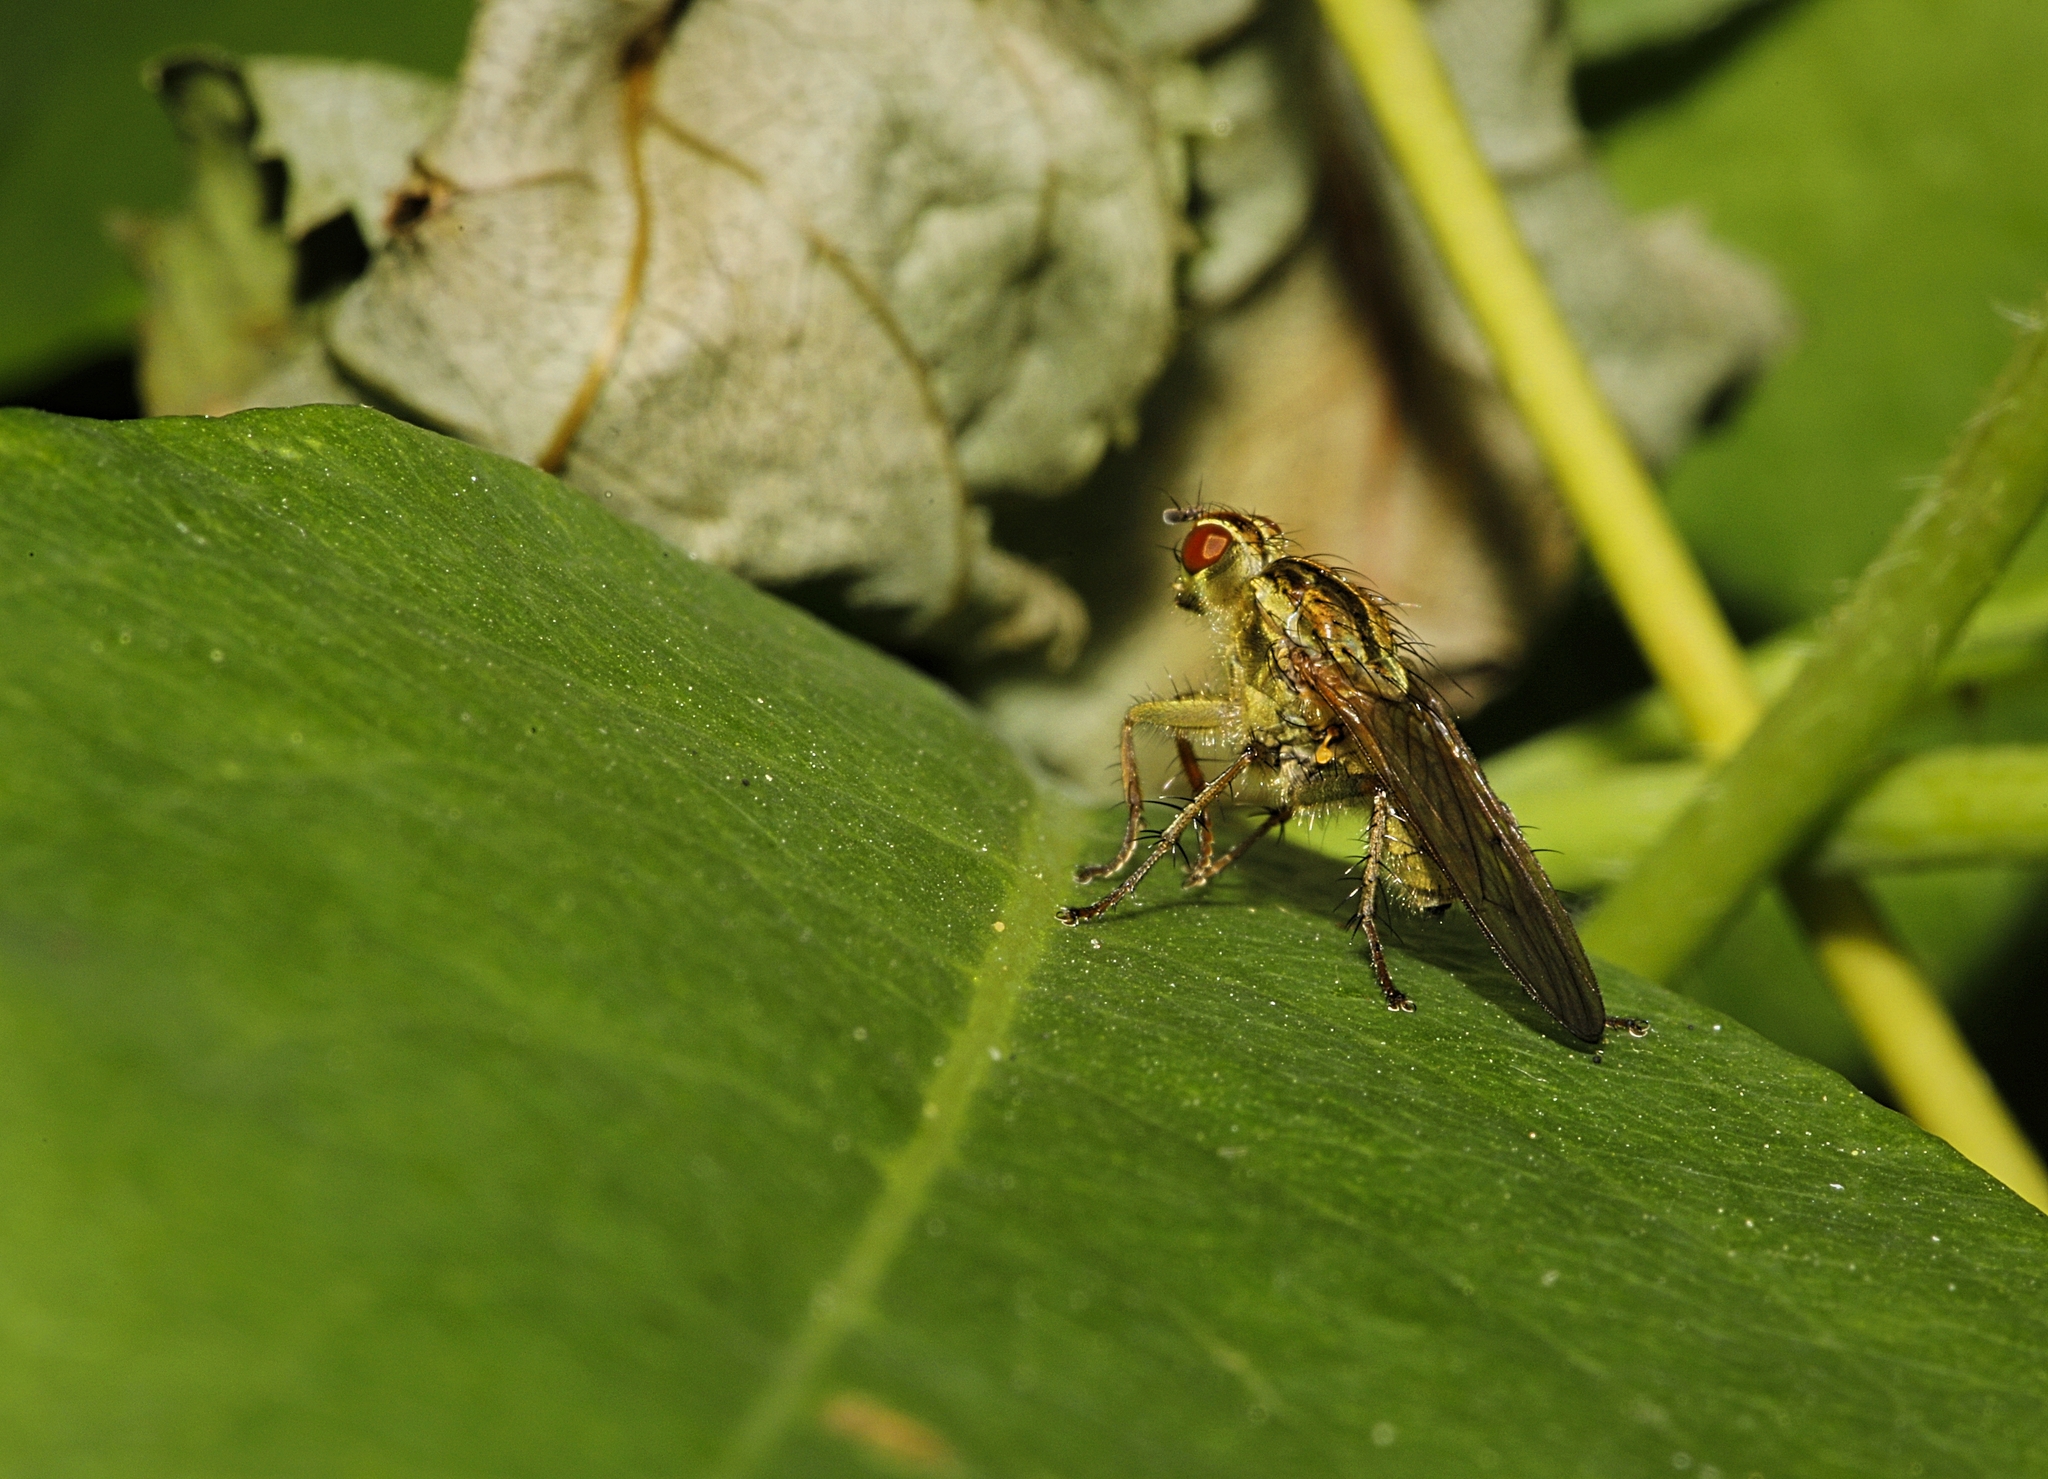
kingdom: Animalia
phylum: Arthropoda
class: Insecta
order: Diptera
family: Scathophagidae
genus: Scathophaga
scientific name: Scathophaga stercoraria
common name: Yellow dung fly
